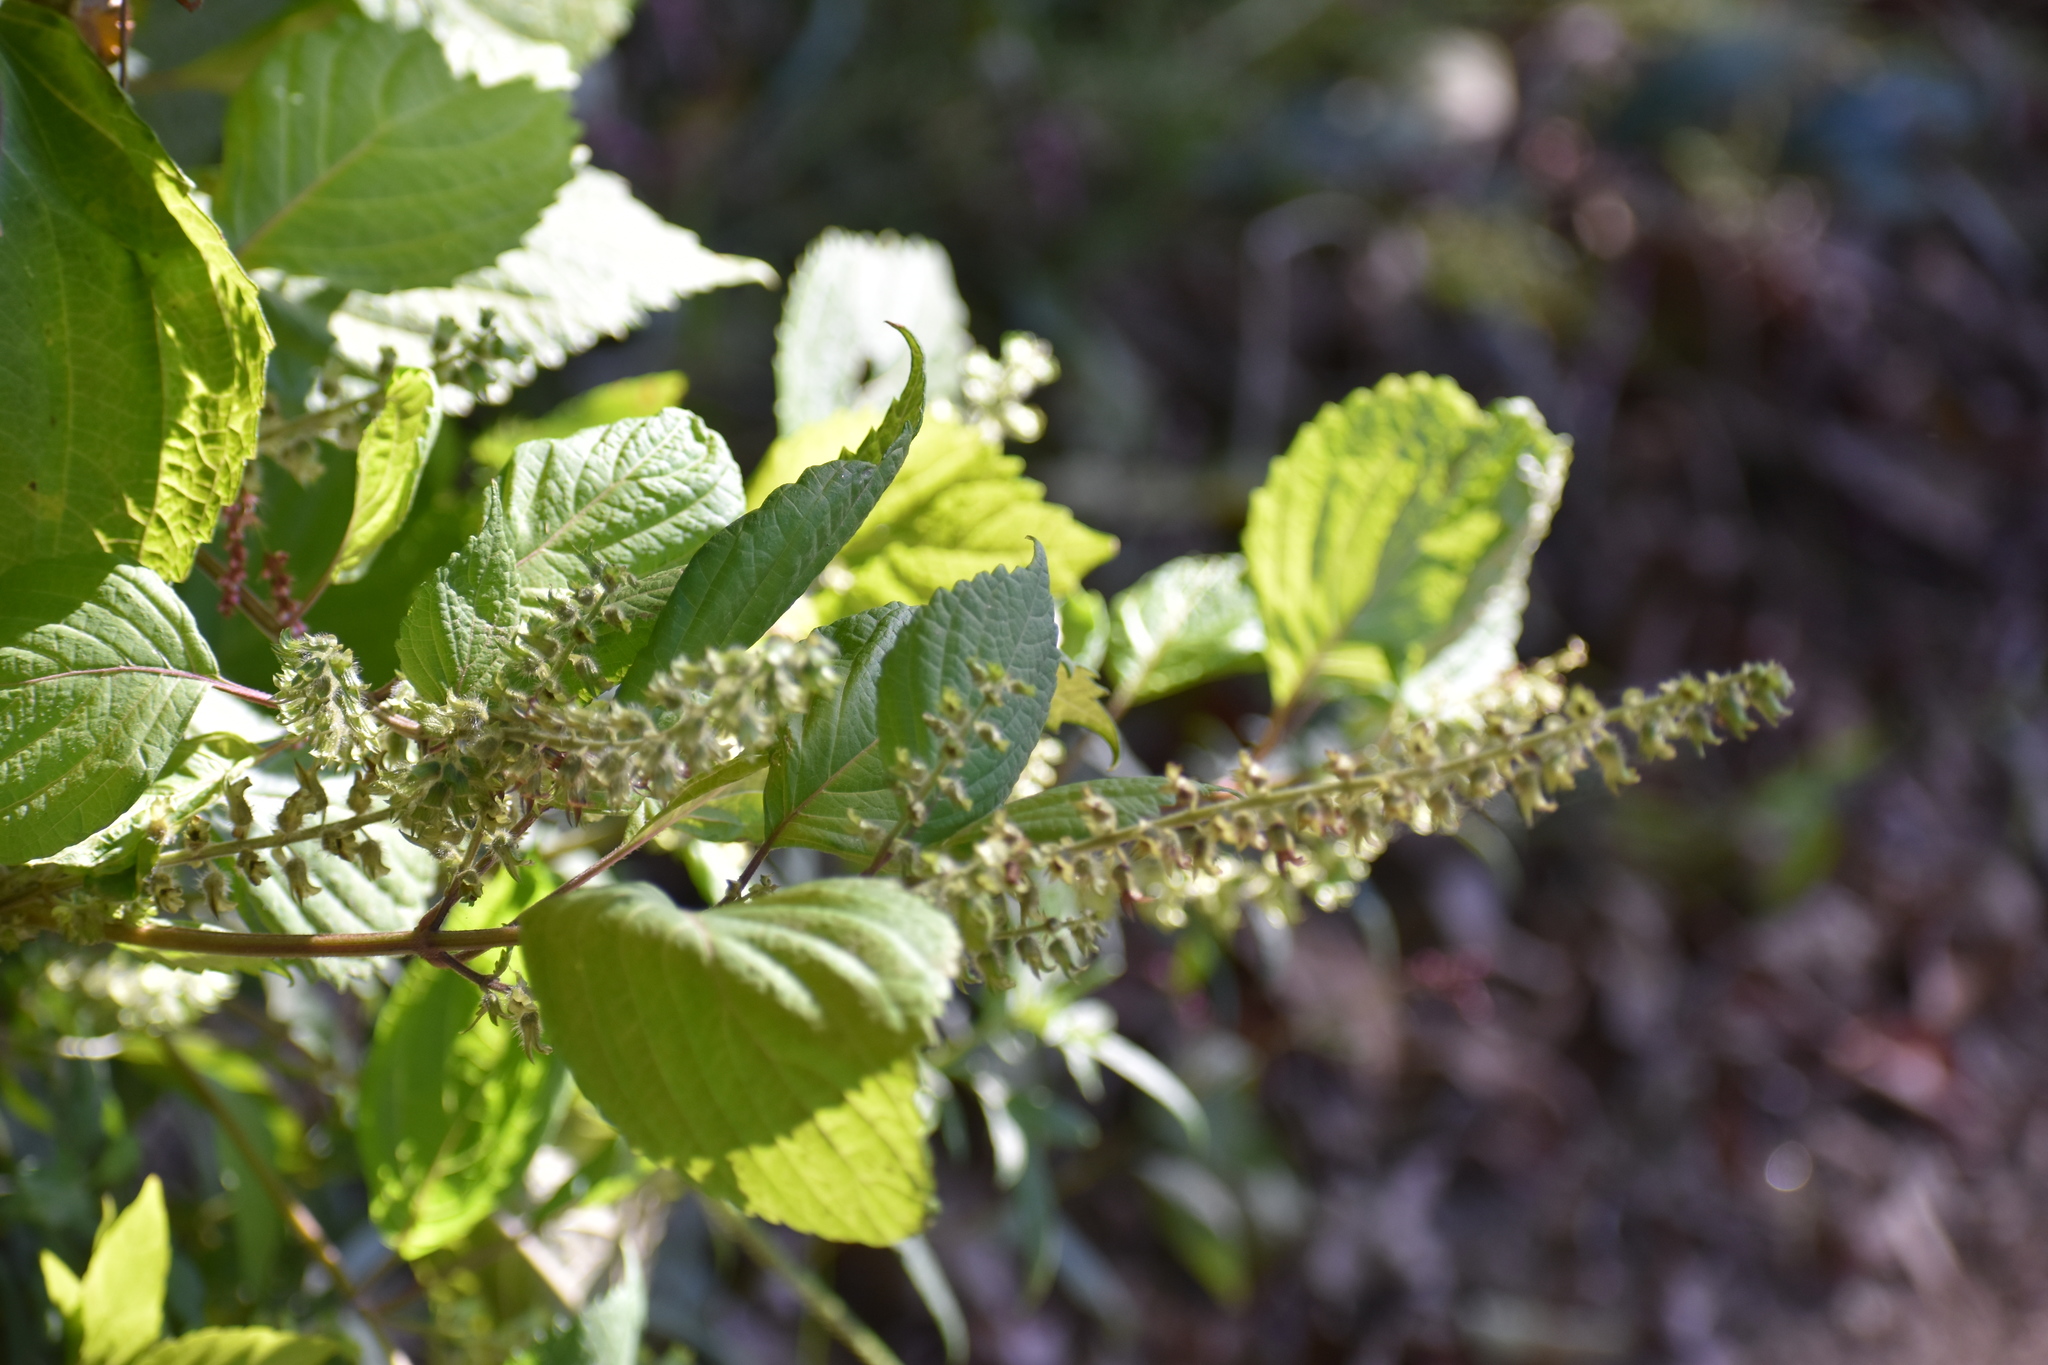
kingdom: Plantae
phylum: Tracheophyta
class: Magnoliopsida
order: Lamiales
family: Lamiaceae
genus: Perilla
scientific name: Perilla frutescens
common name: Perilla
